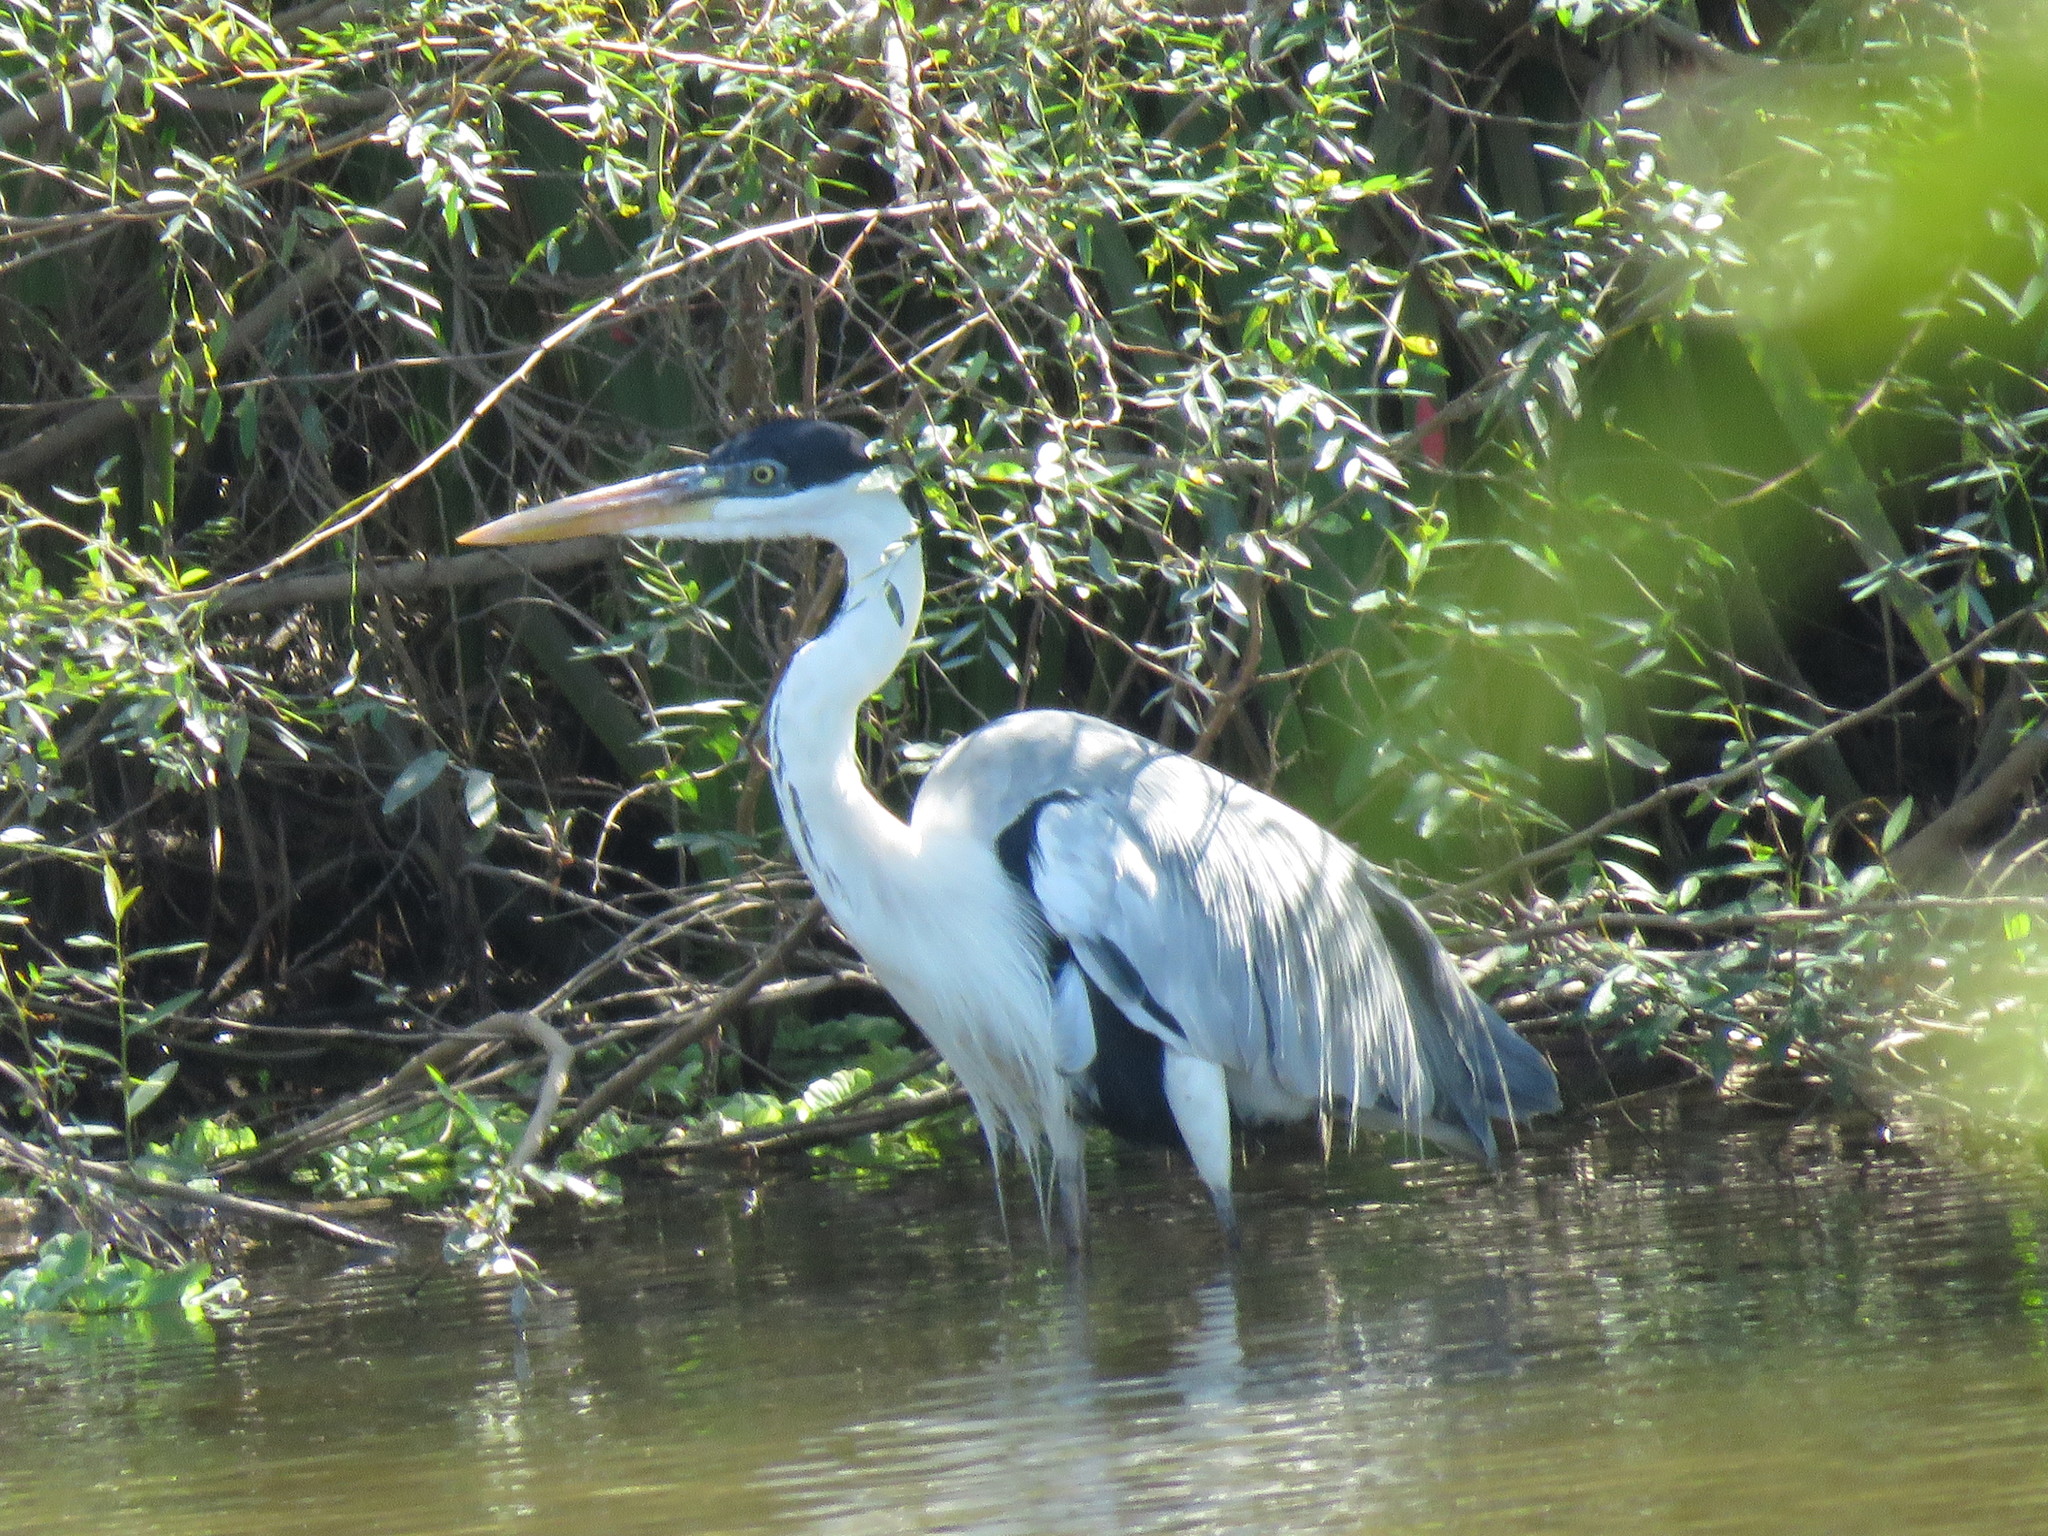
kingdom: Animalia
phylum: Chordata
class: Aves
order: Pelecaniformes
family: Ardeidae
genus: Ardea
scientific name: Ardea cocoi
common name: Cocoi heron
